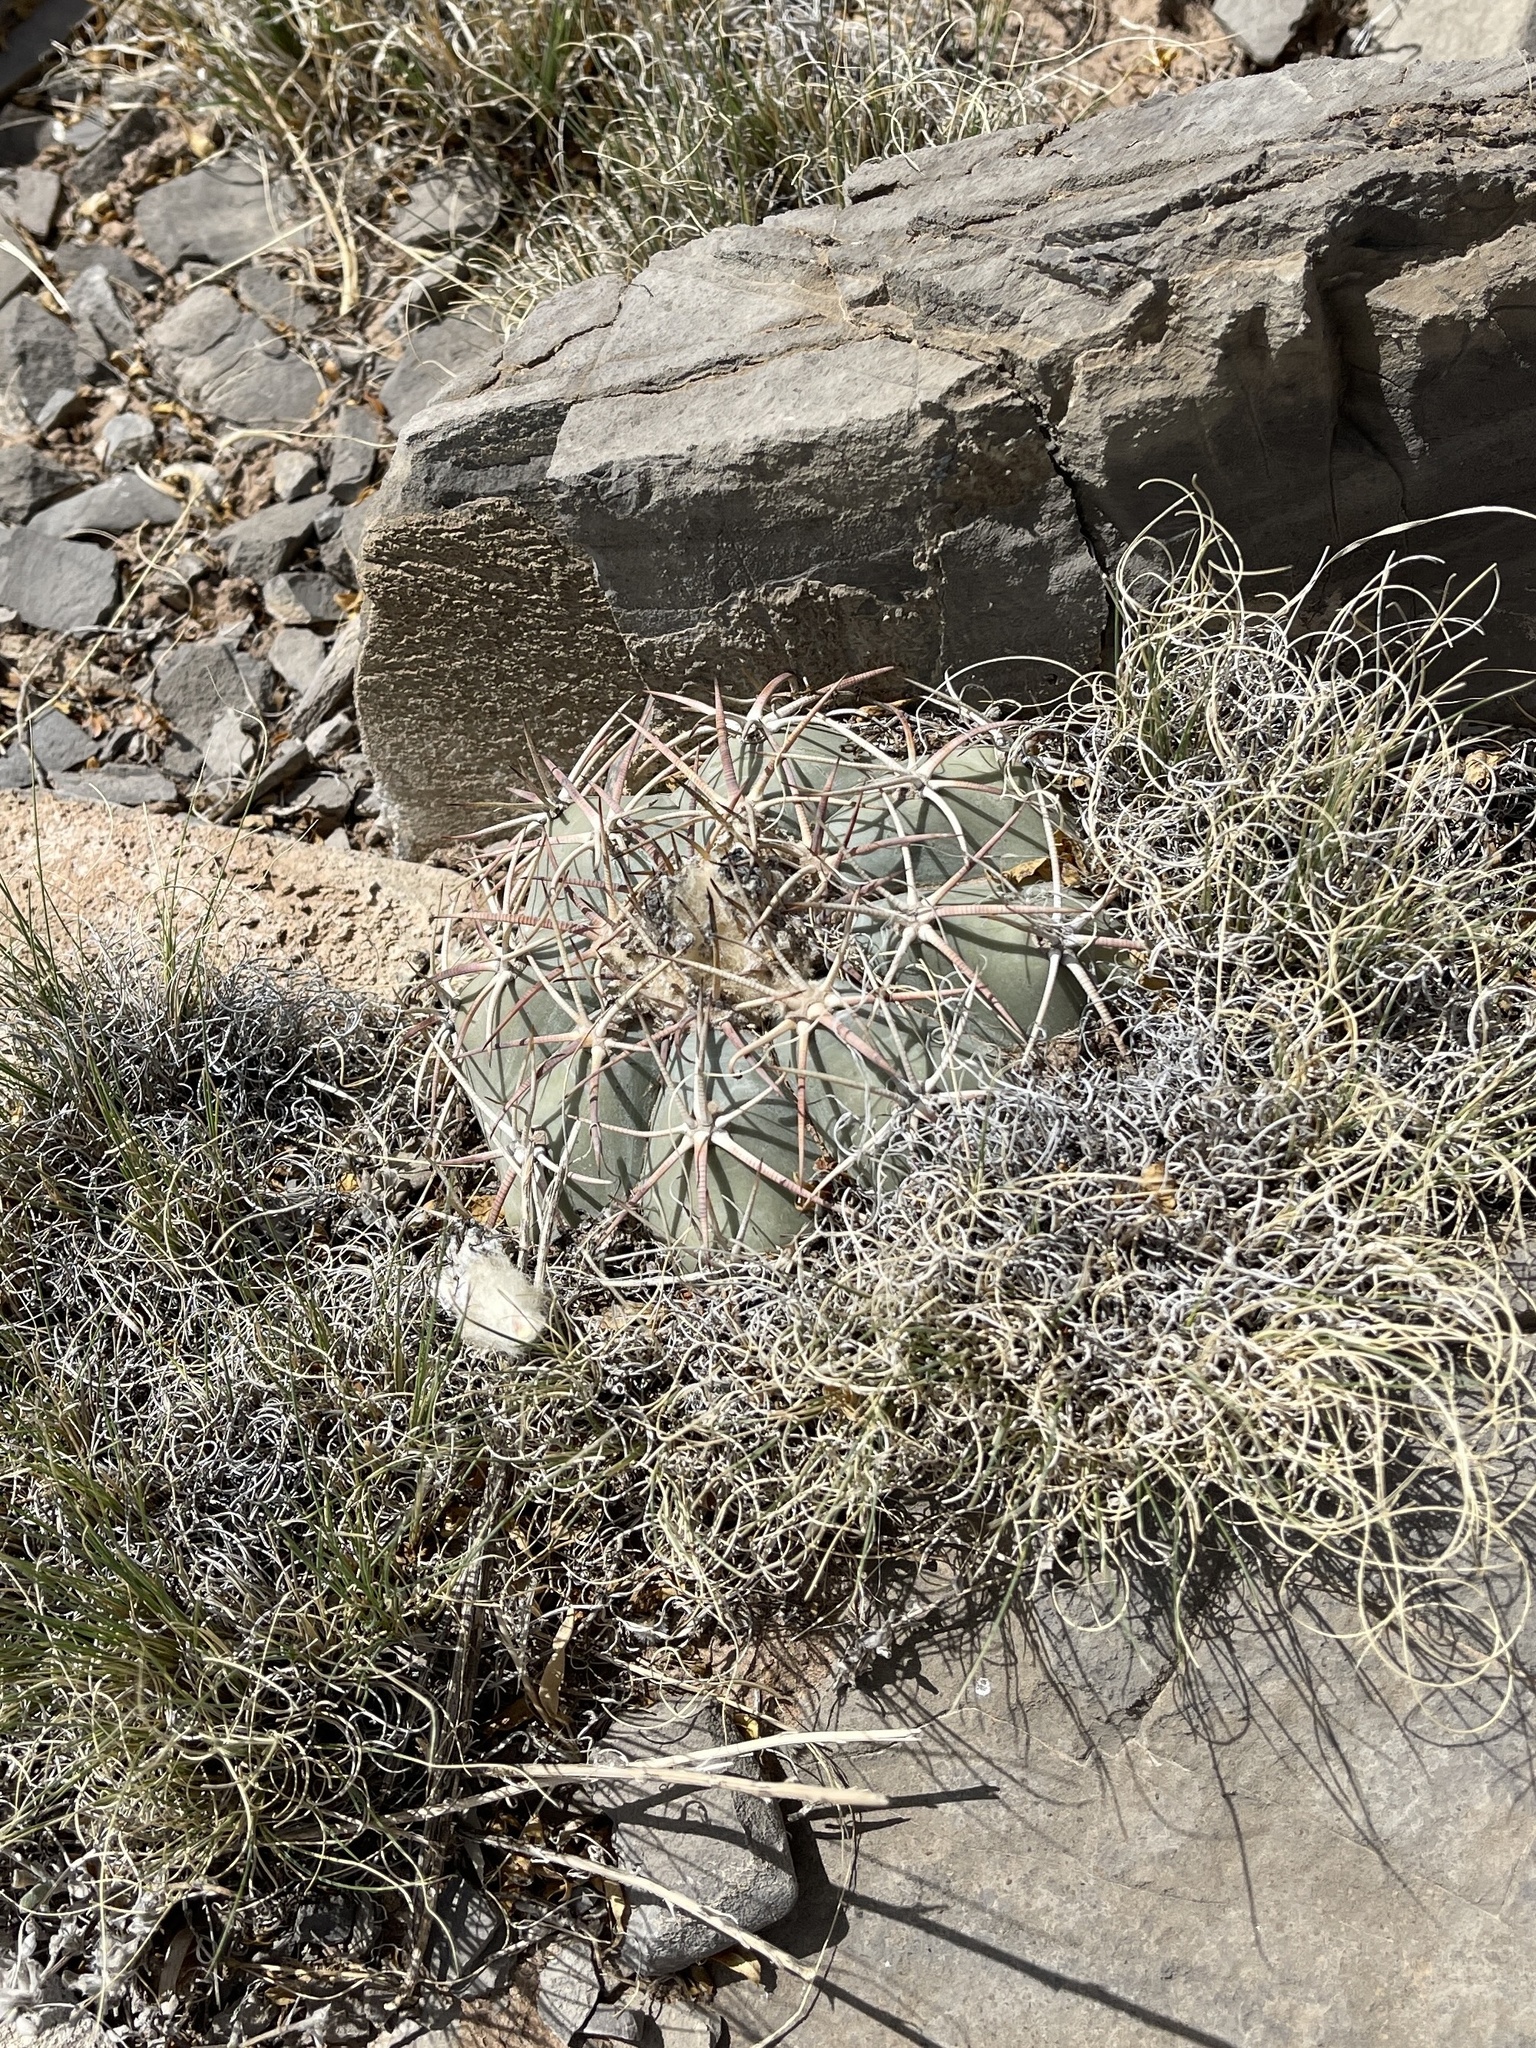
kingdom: Plantae
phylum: Tracheophyta
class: Magnoliopsida
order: Caryophyllales
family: Cactaceae
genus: Echinocactus
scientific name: Echinocactus horizonthalonius
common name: Devilshead
